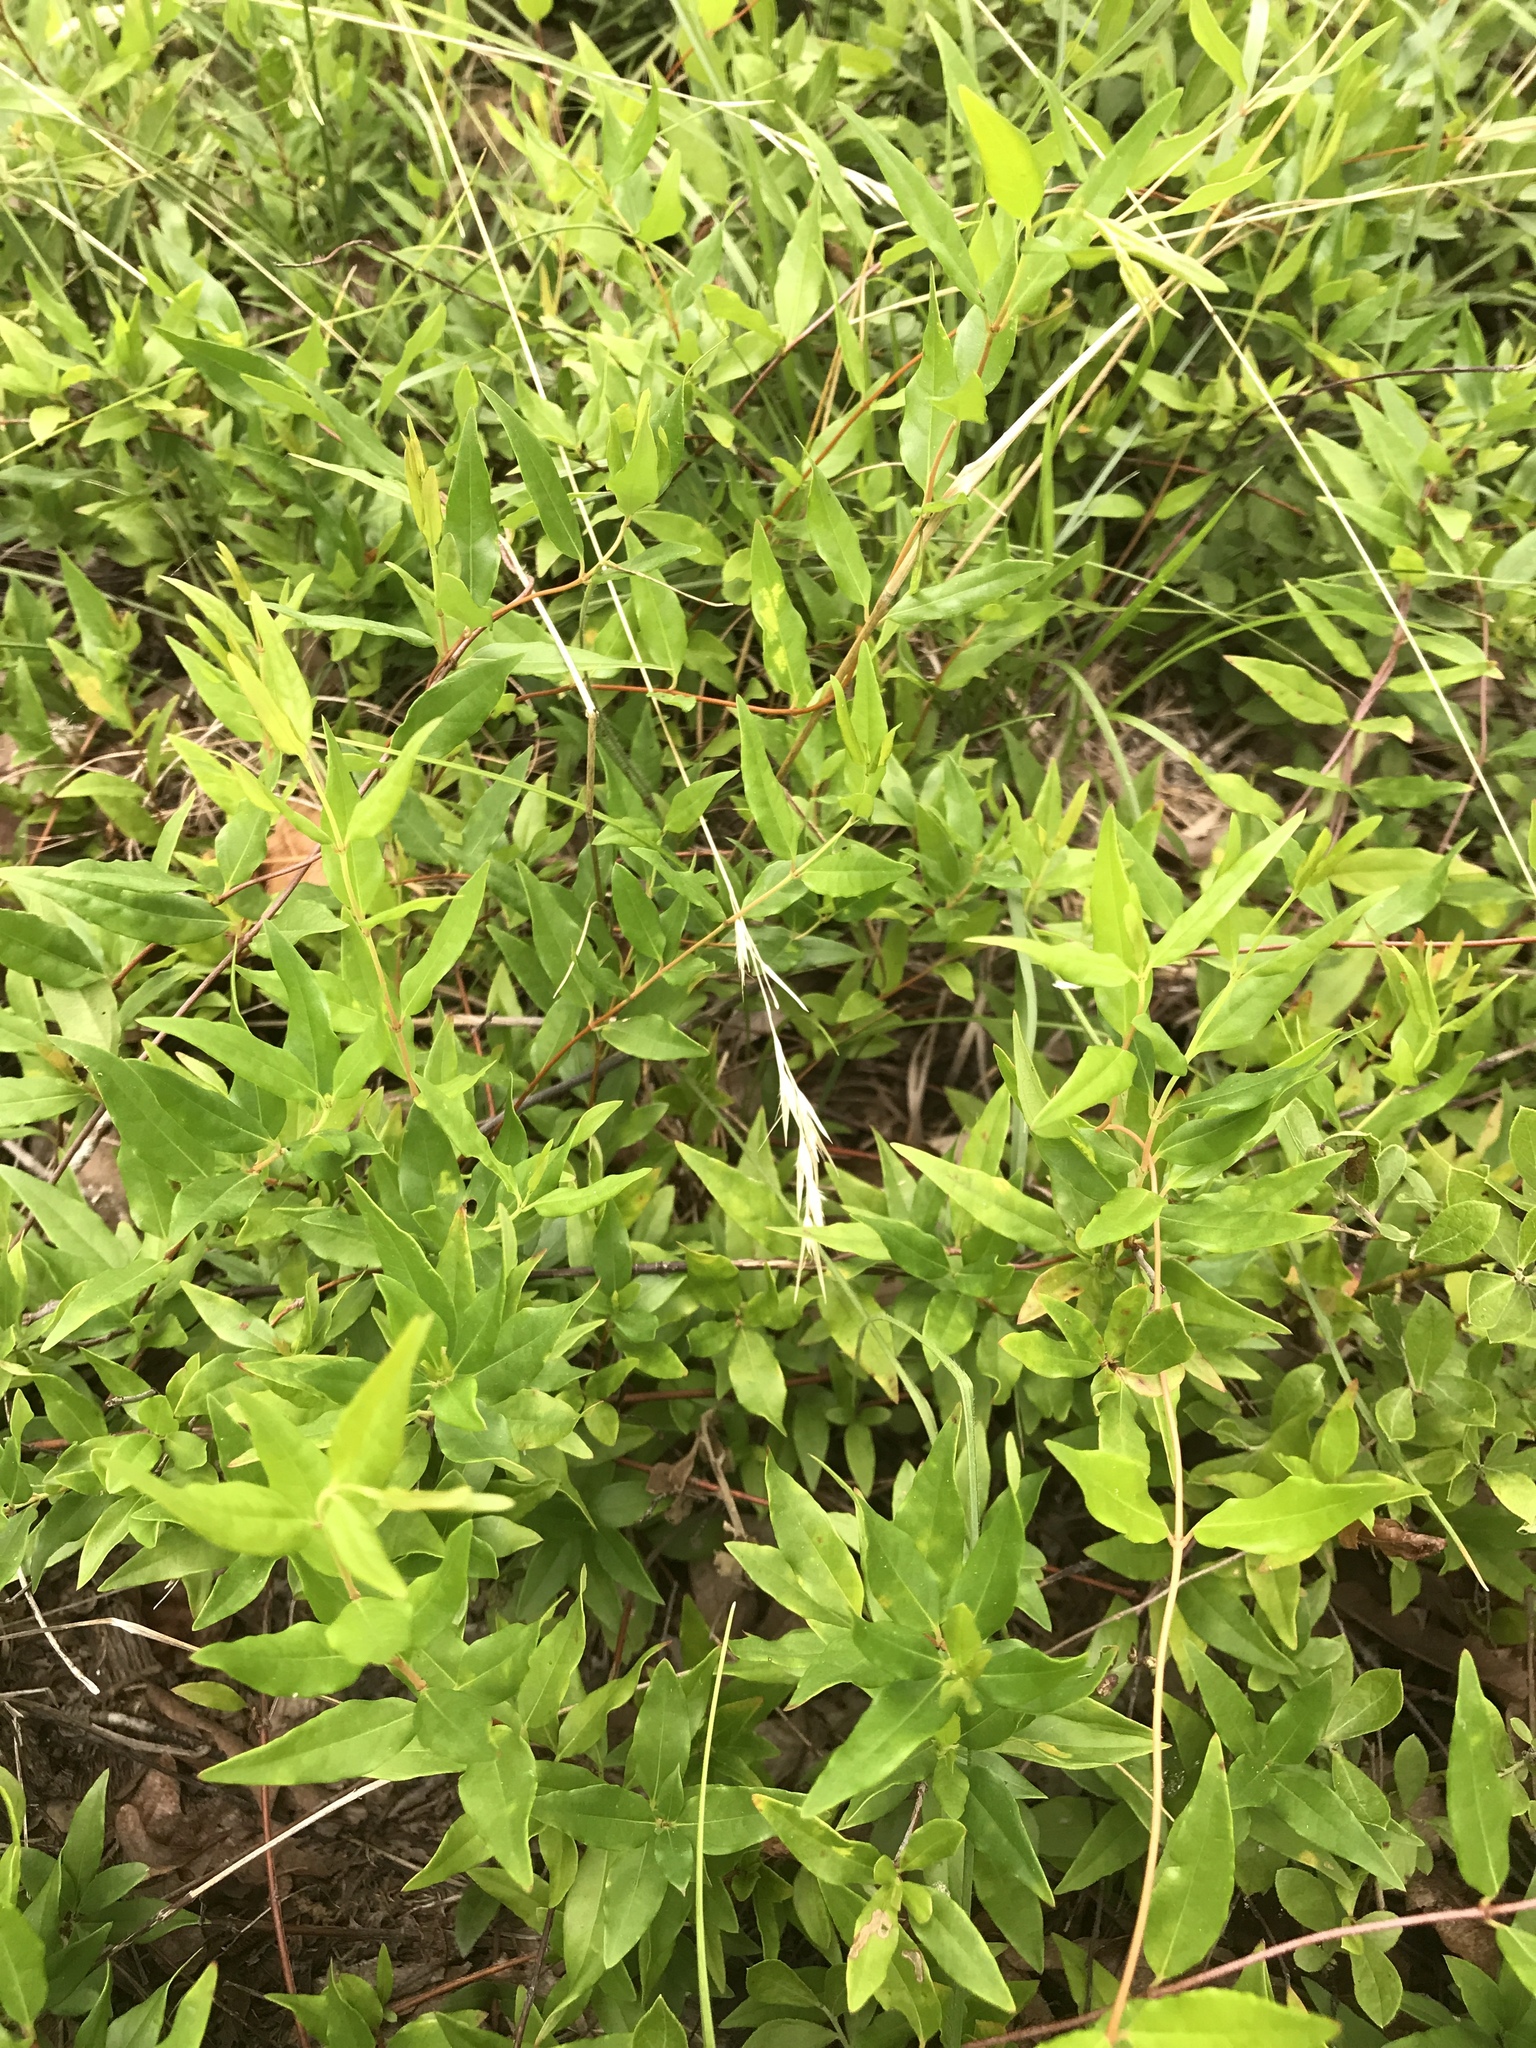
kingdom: Plantae
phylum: Tracheophyta
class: Magnoliopsida
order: Gentianales
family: Gelsemiaceae
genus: Gelsemium
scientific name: Gelsemium sempervirens
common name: Carolina-jasmine
